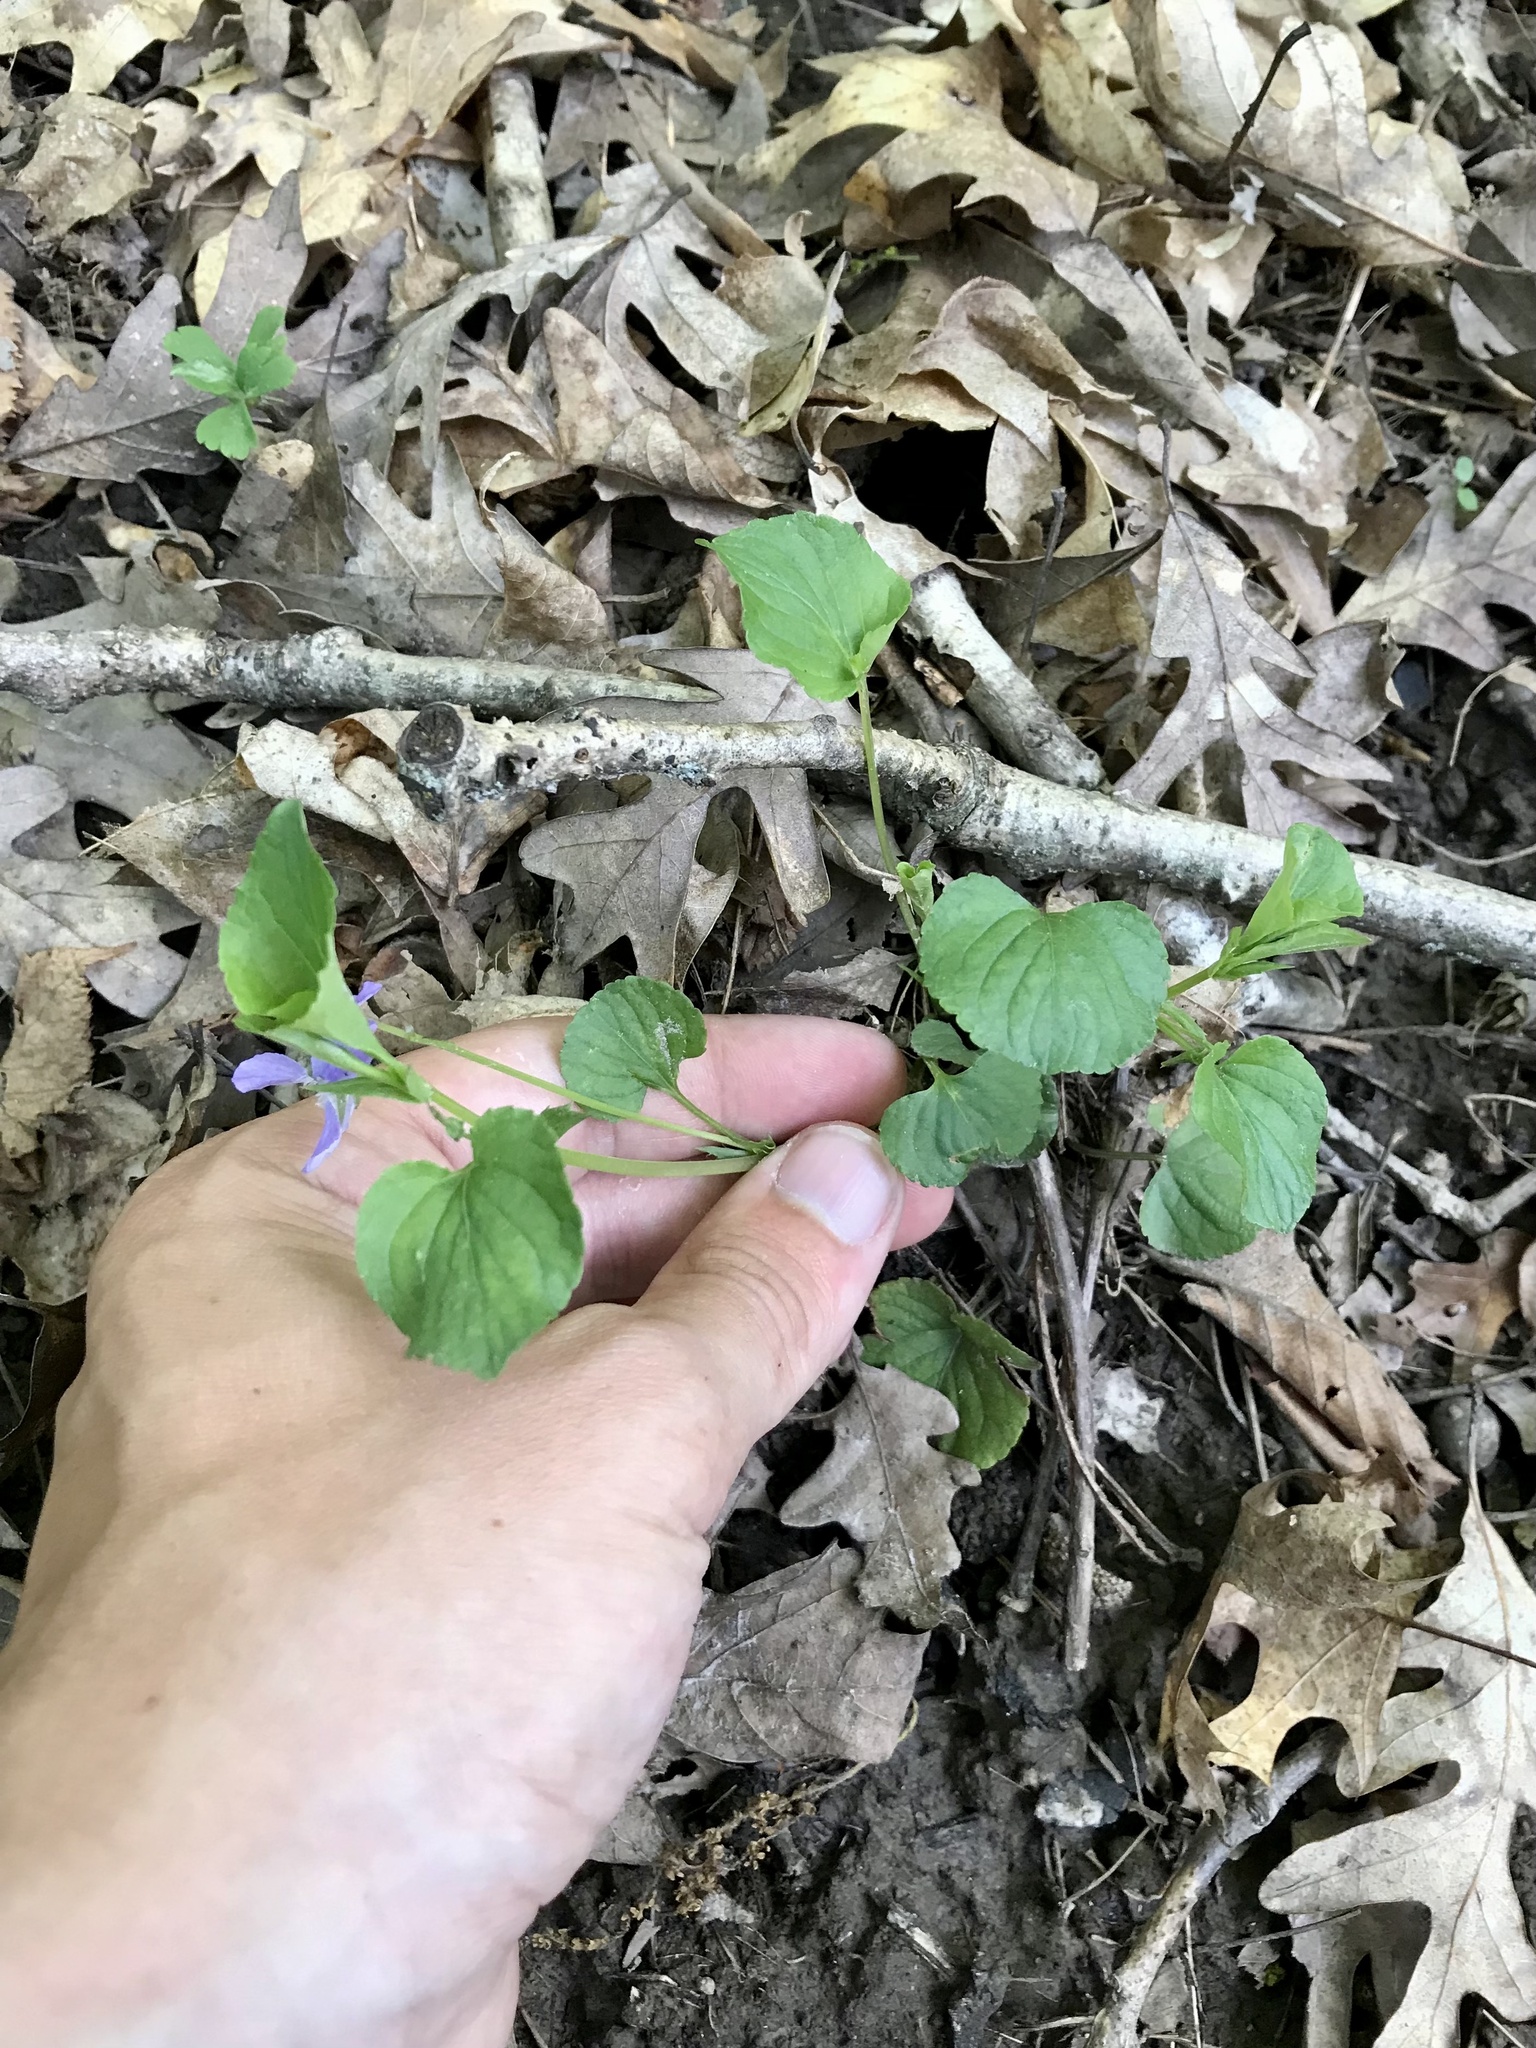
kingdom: Plantae
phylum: Tracheophyta
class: Magnoliopsida
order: Malpighiales
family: Violaceae
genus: Viola
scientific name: Viola labradorica
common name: Labrador violet
